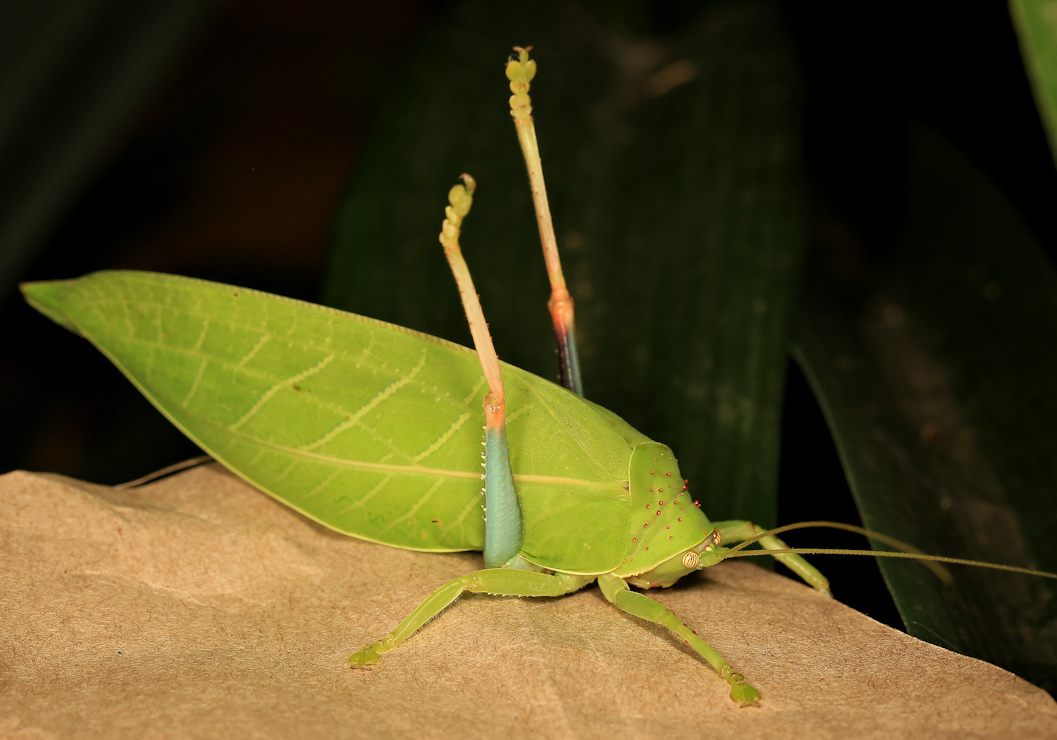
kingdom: Animalia
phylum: Arthropoda
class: Insecta
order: Orthoptera
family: Tettigoniidae
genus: Zabalius
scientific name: Zabalius ophthalmicus
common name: Blue-legged sylvan katydid
